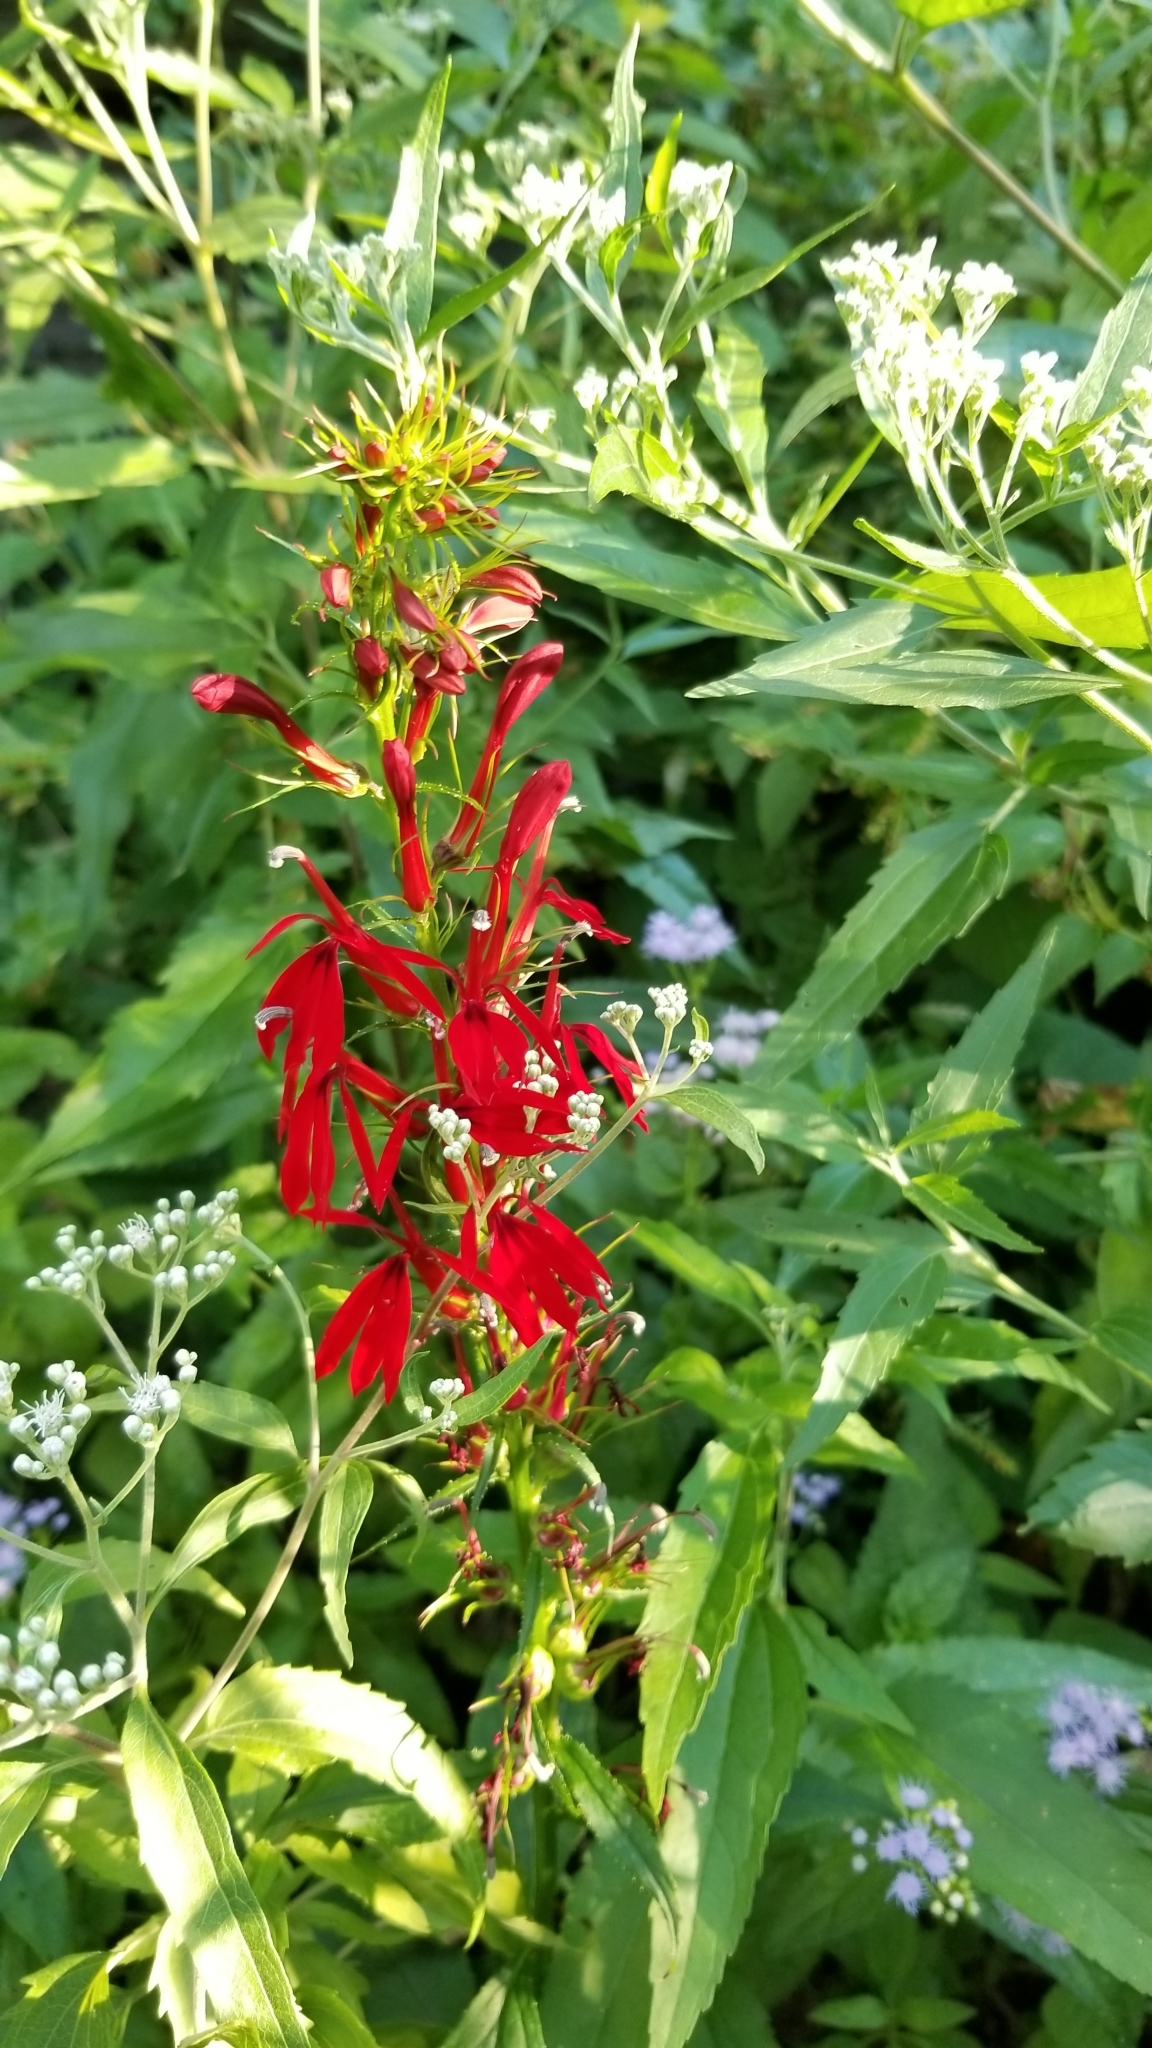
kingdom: Plantae
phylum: Tracheophyta
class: Magnoliopsida
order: Asterales
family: Campanulaceae
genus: Lobelia
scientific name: Lobelia cardinalis
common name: Cardinal flower
